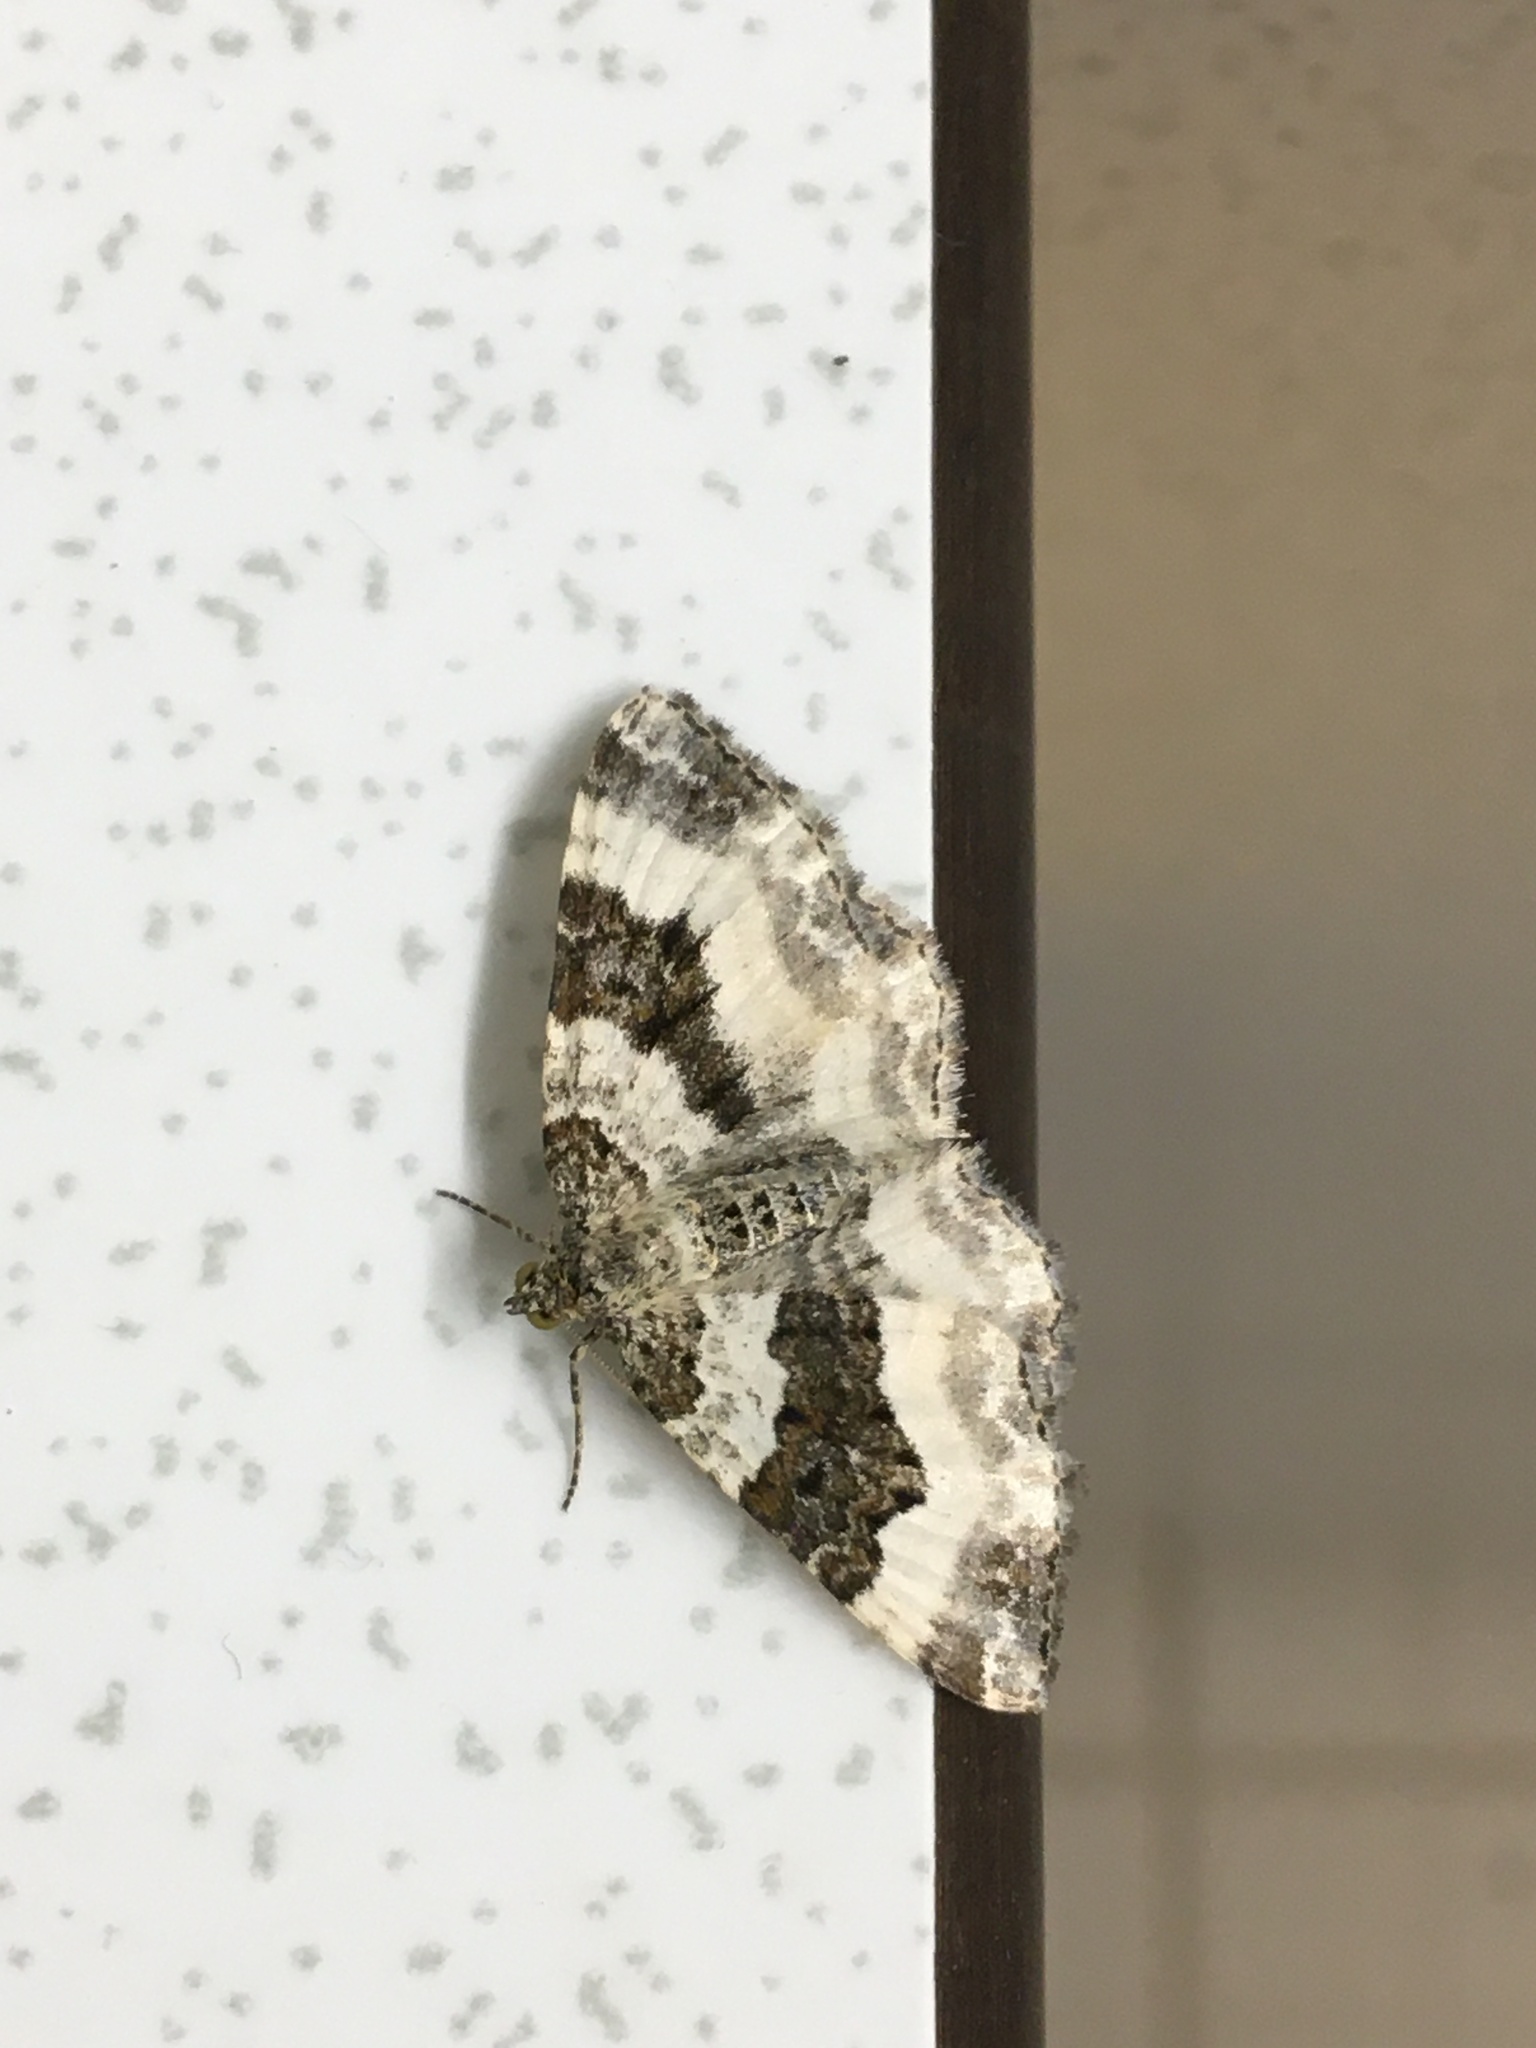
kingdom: Animalia
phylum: Arthropoda
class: Insecta
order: Lepidoptera
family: Geometridae
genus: Epirrhoe
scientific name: Epirrhoe rivata
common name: Wood carpet
